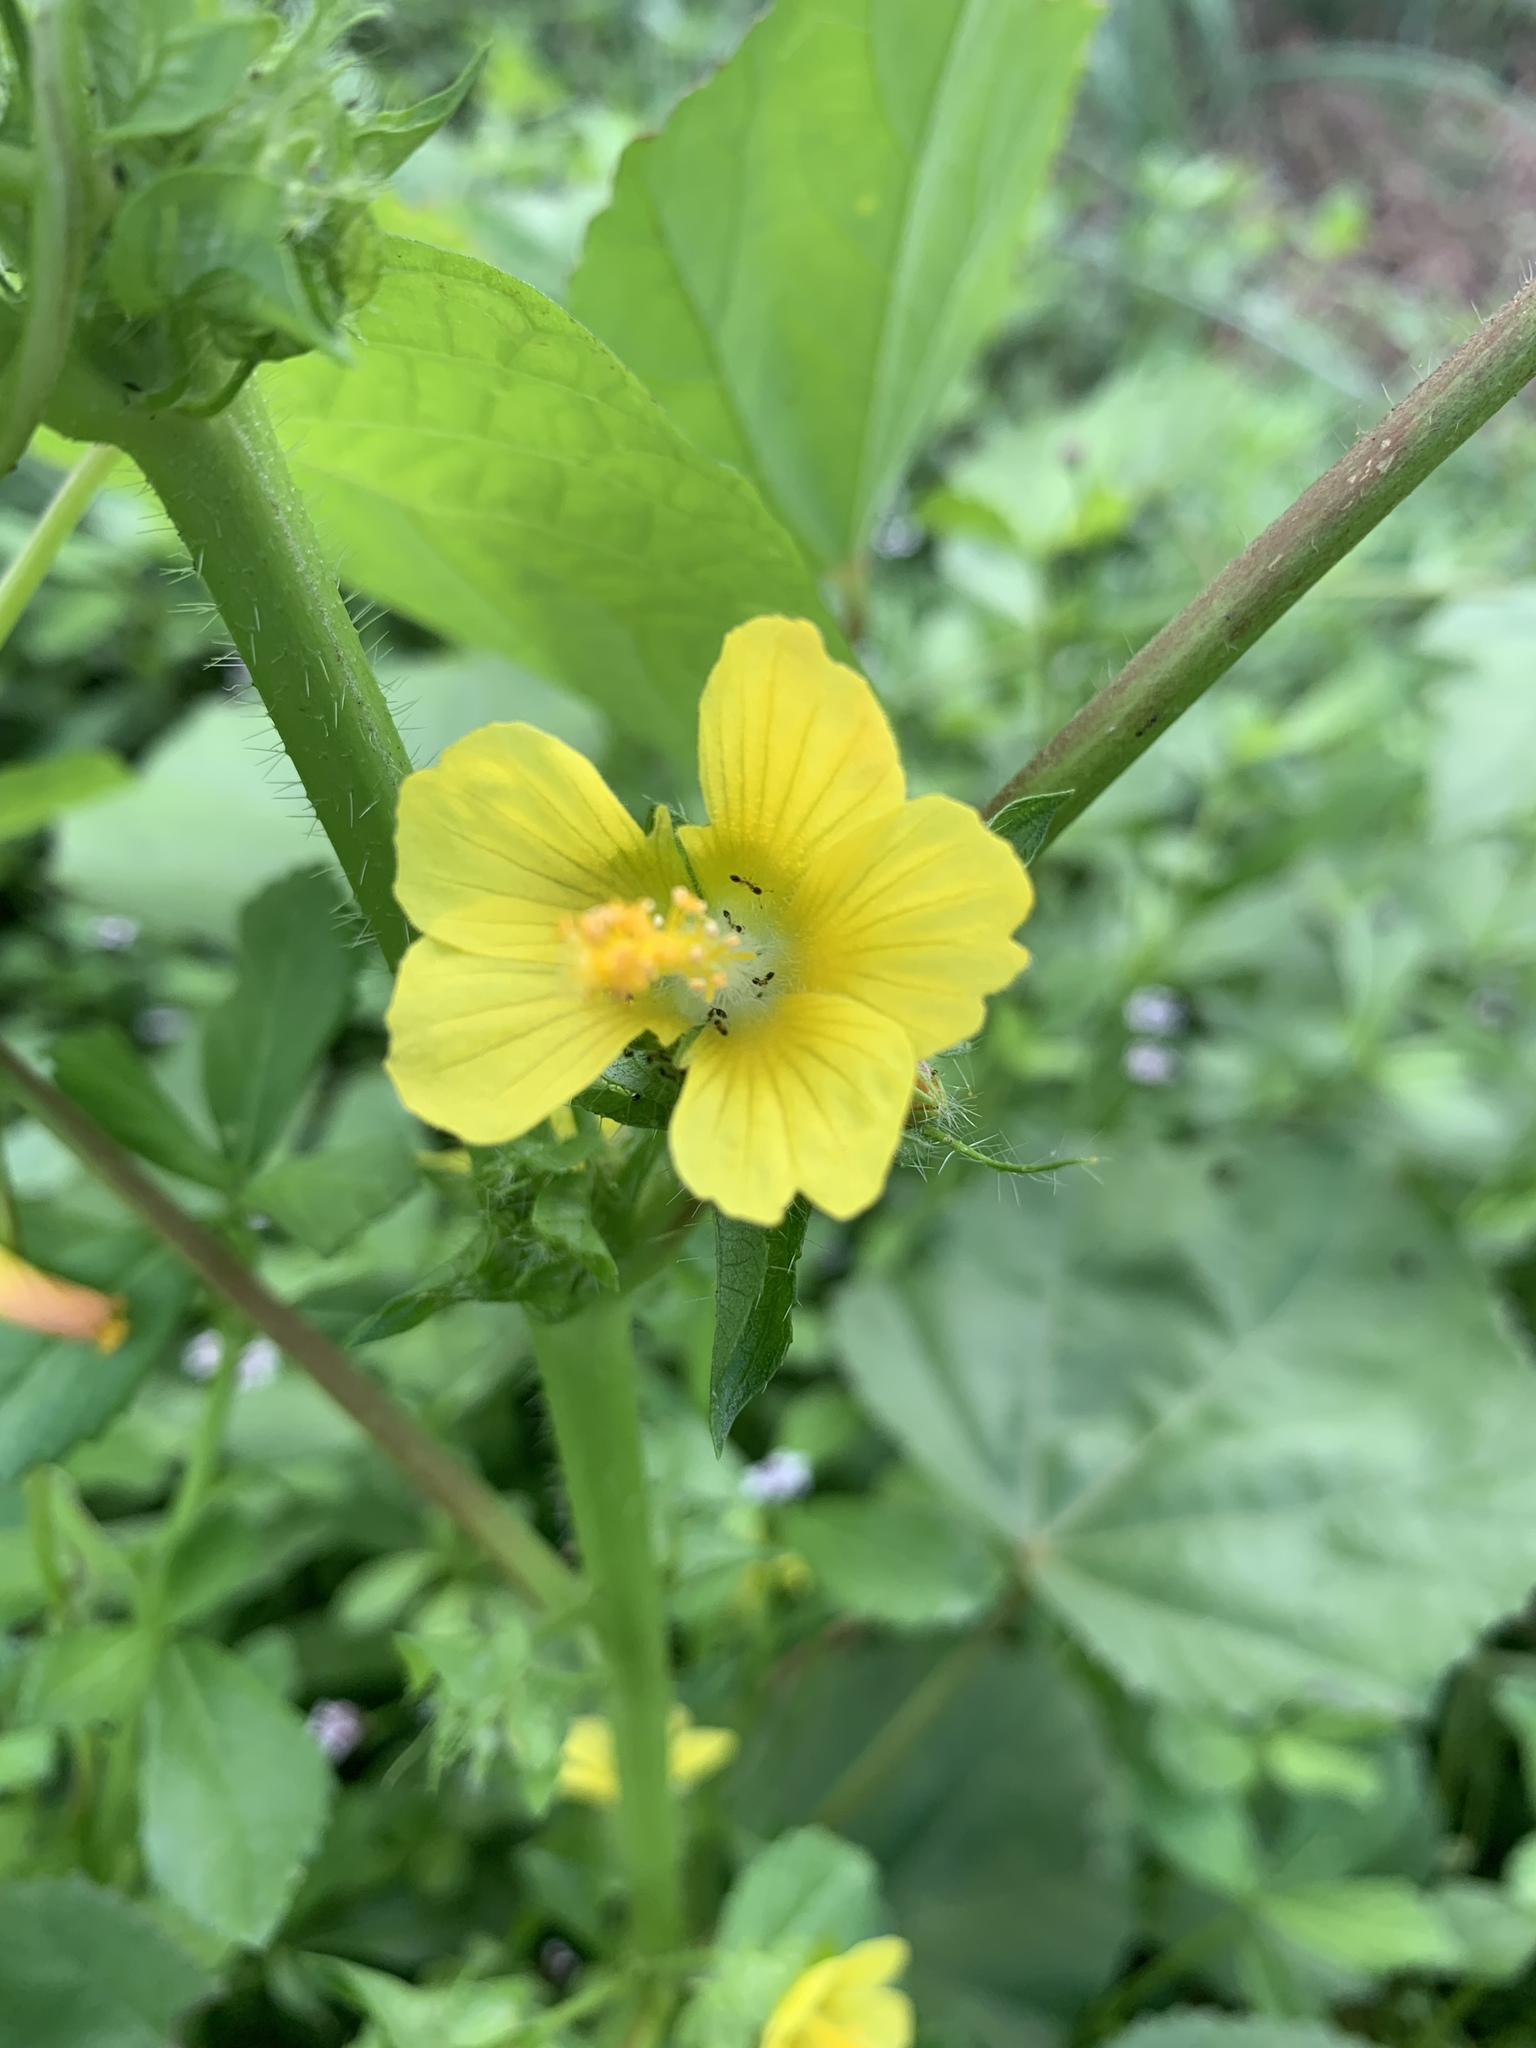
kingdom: Plantae
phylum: Tracheophyta
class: Magnoliopsida
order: Malvales
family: Malvaceae
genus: Malachra
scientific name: Malachra alceifolia
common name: Yellow leafbract
